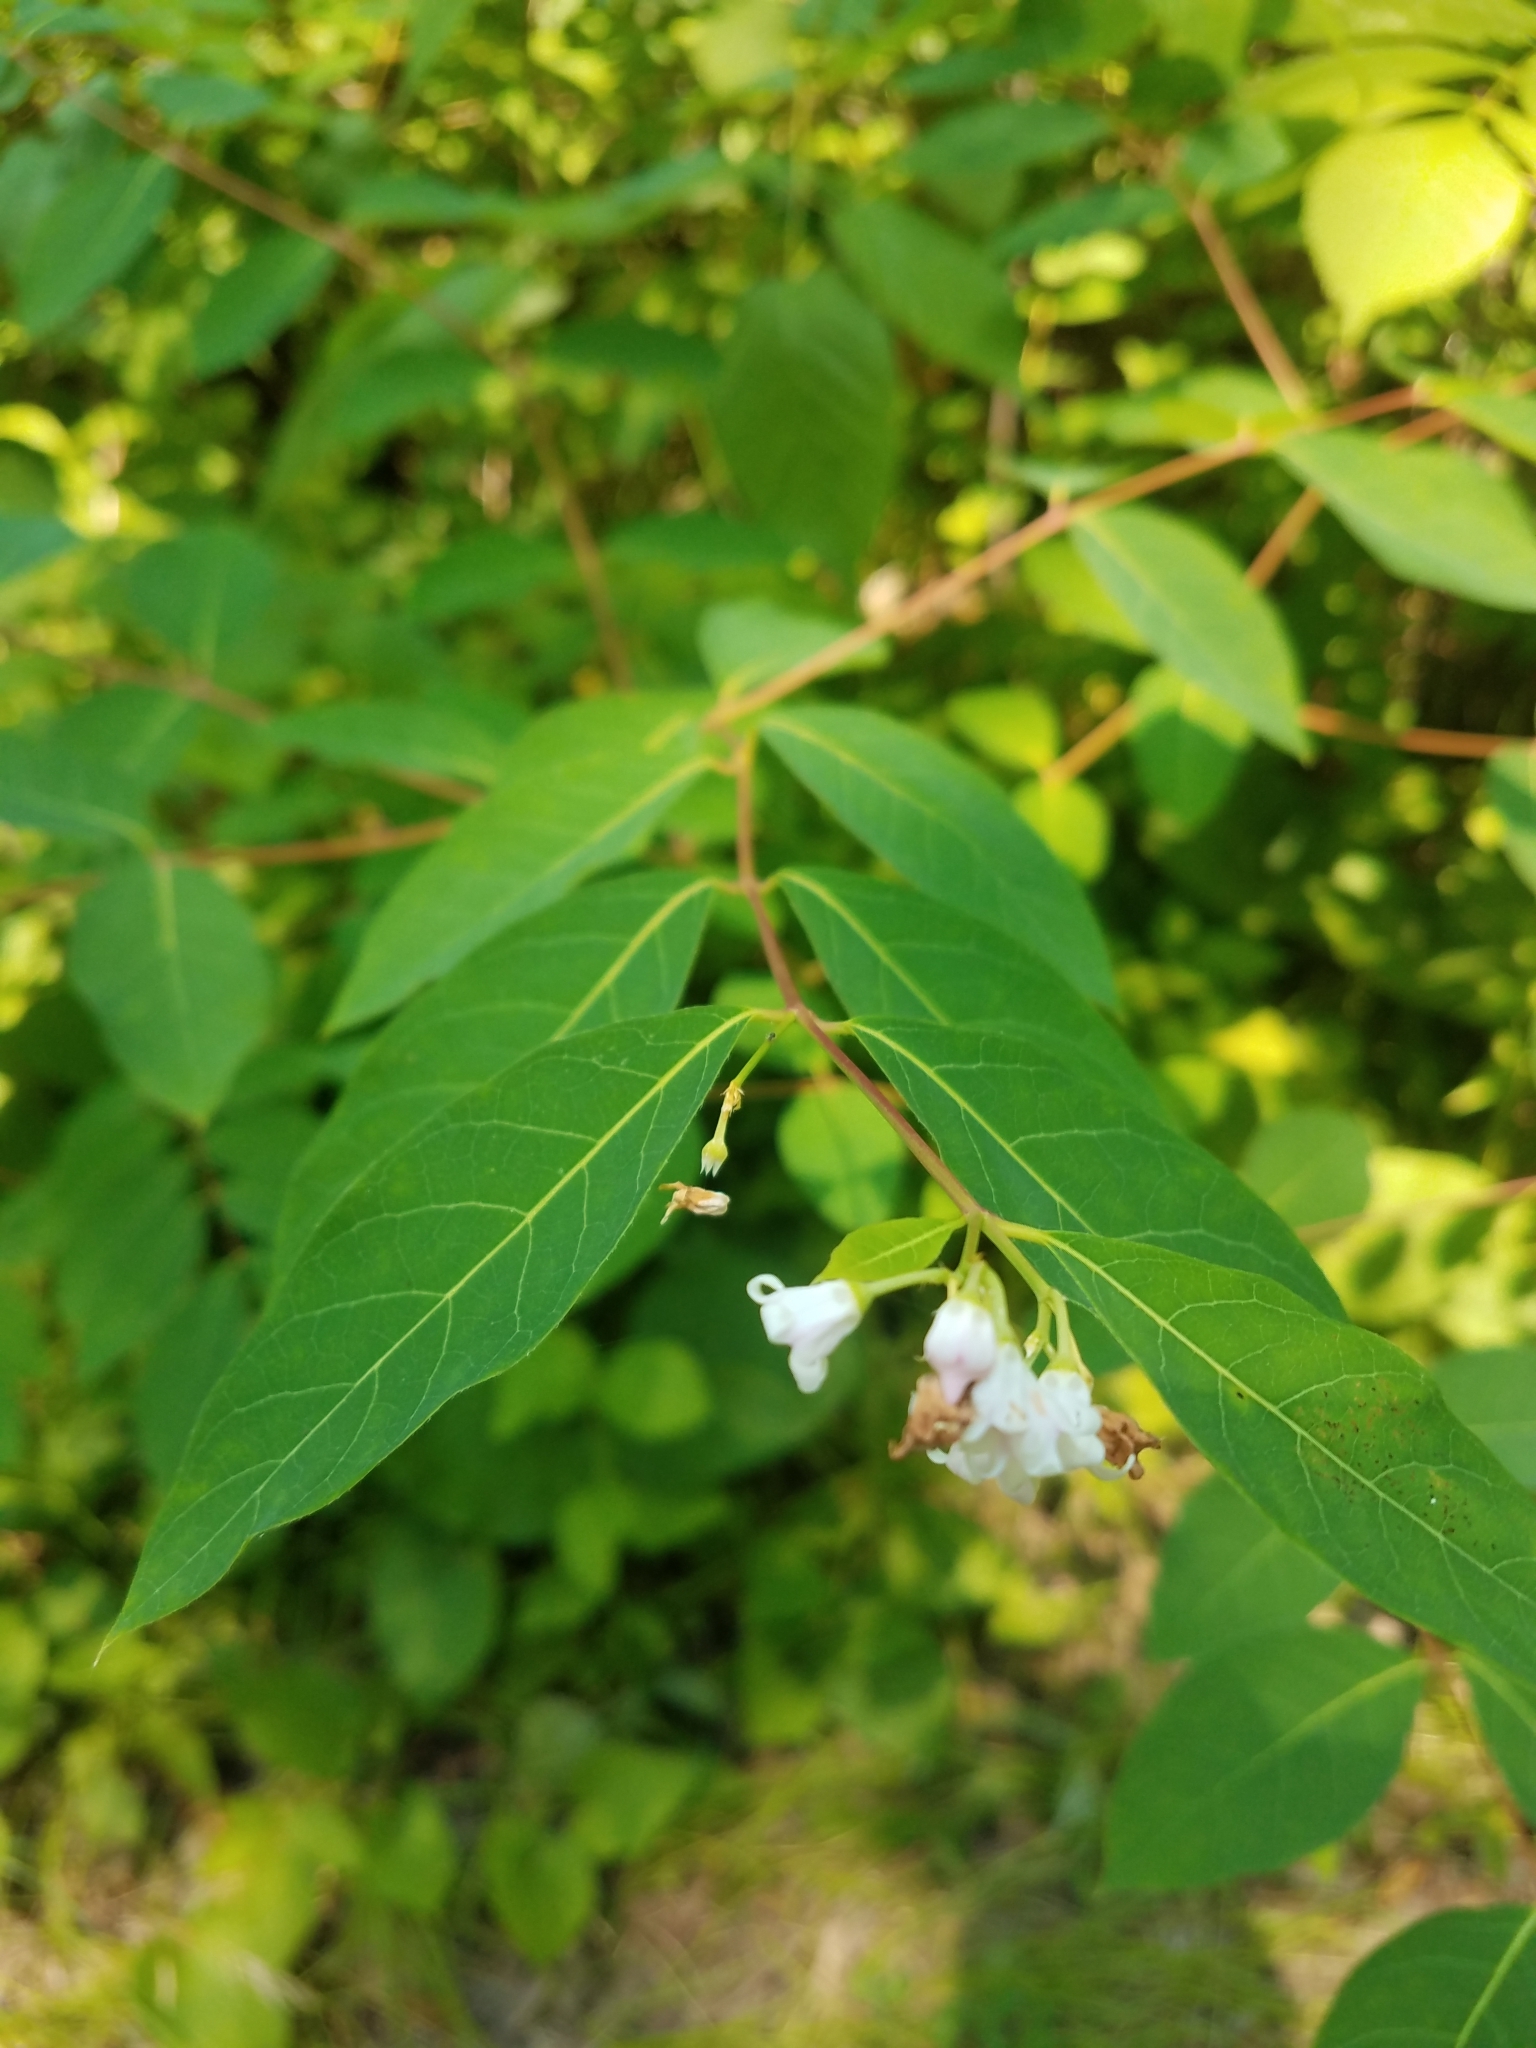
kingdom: Plantae
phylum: Tracheophyta
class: Magnoliopsida
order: Gentianales
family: Apocynaceae
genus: Apocynum
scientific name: Apocynum androsaemifolium
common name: Spreading dogbane
